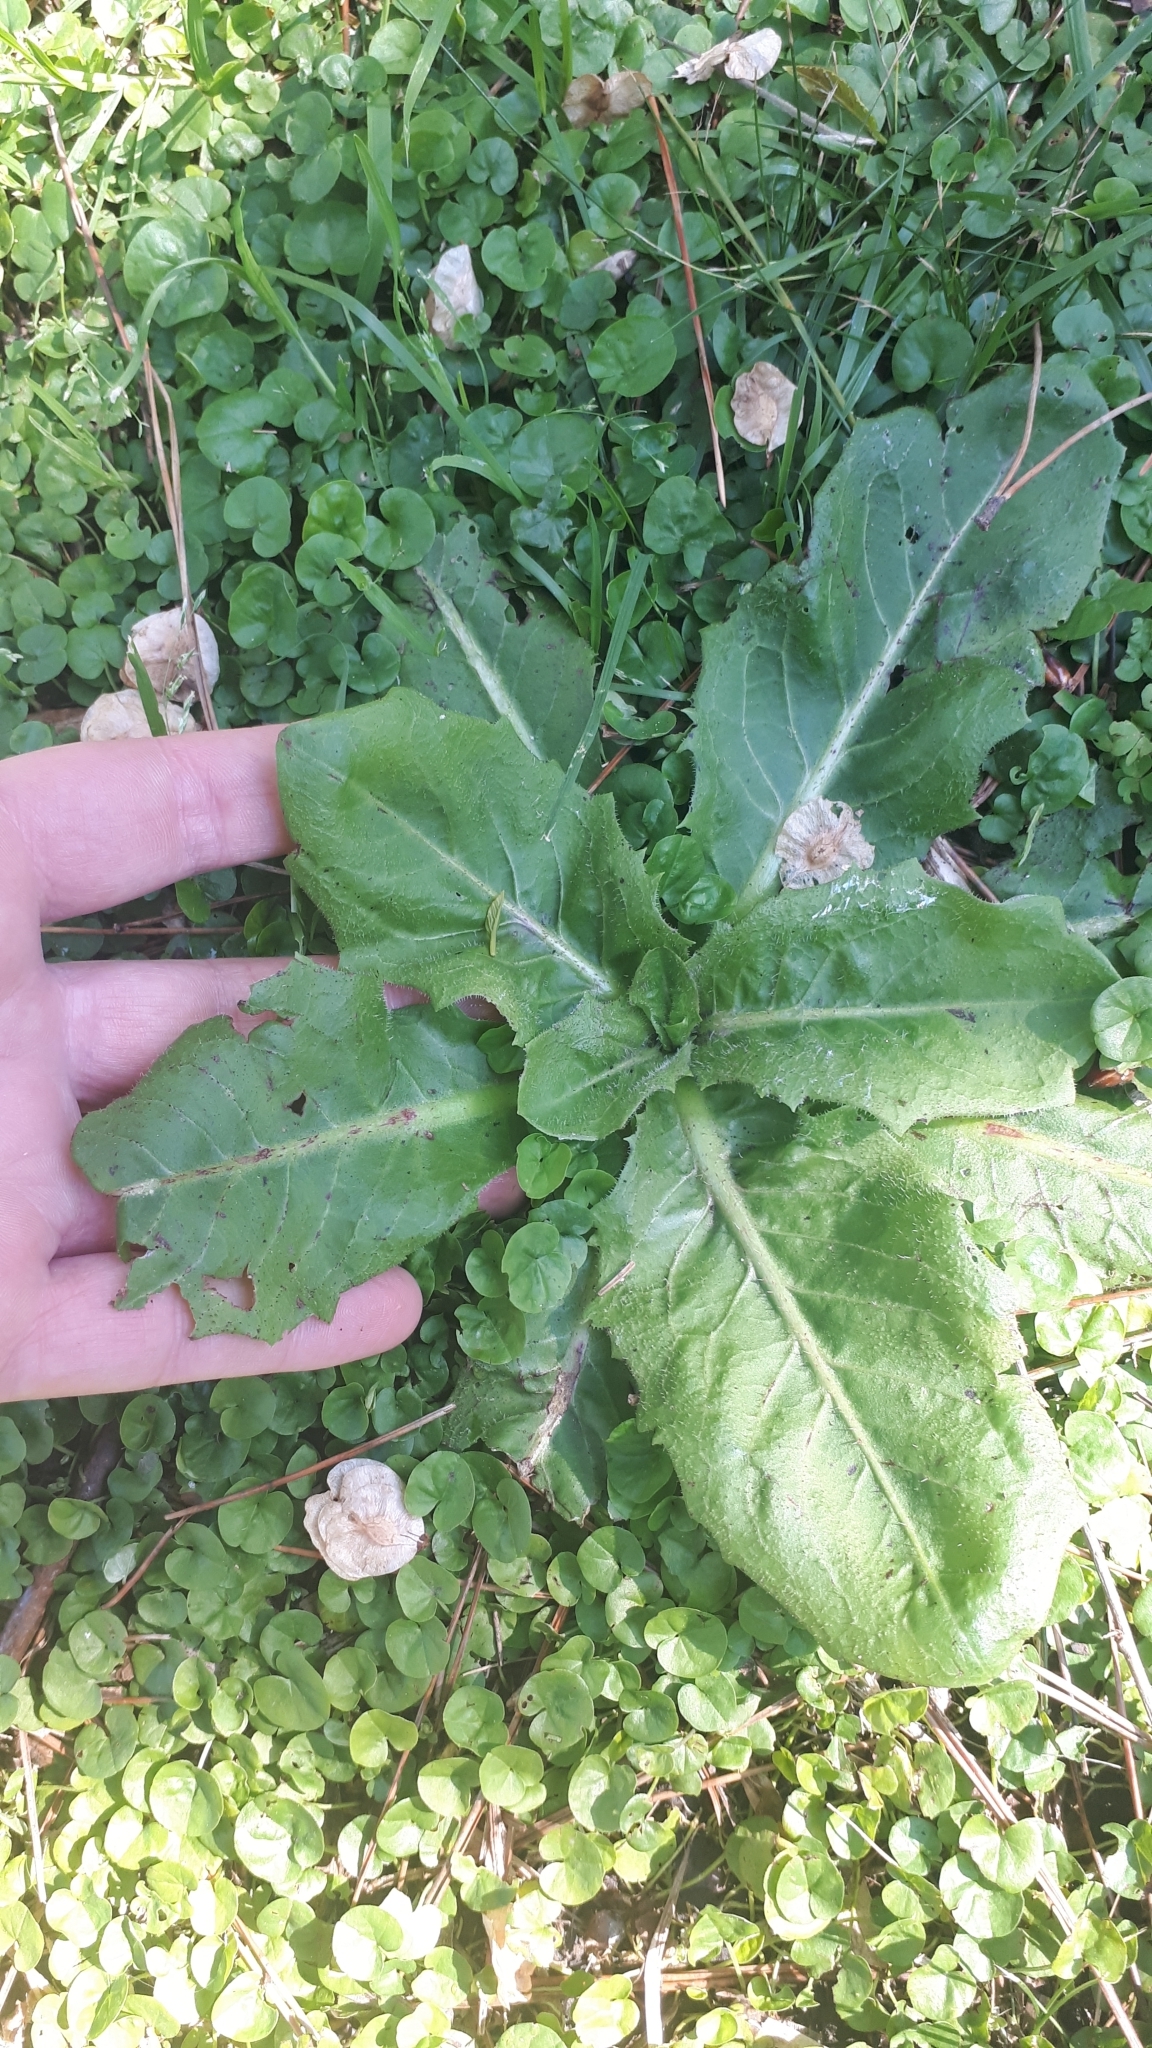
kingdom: Plantae
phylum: Tracheophyta
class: Magnoliopsida
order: Asterales
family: Asteraceae
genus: Hypochaeris
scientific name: Hypochaeris chillensis
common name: Brazilian cat's ear
